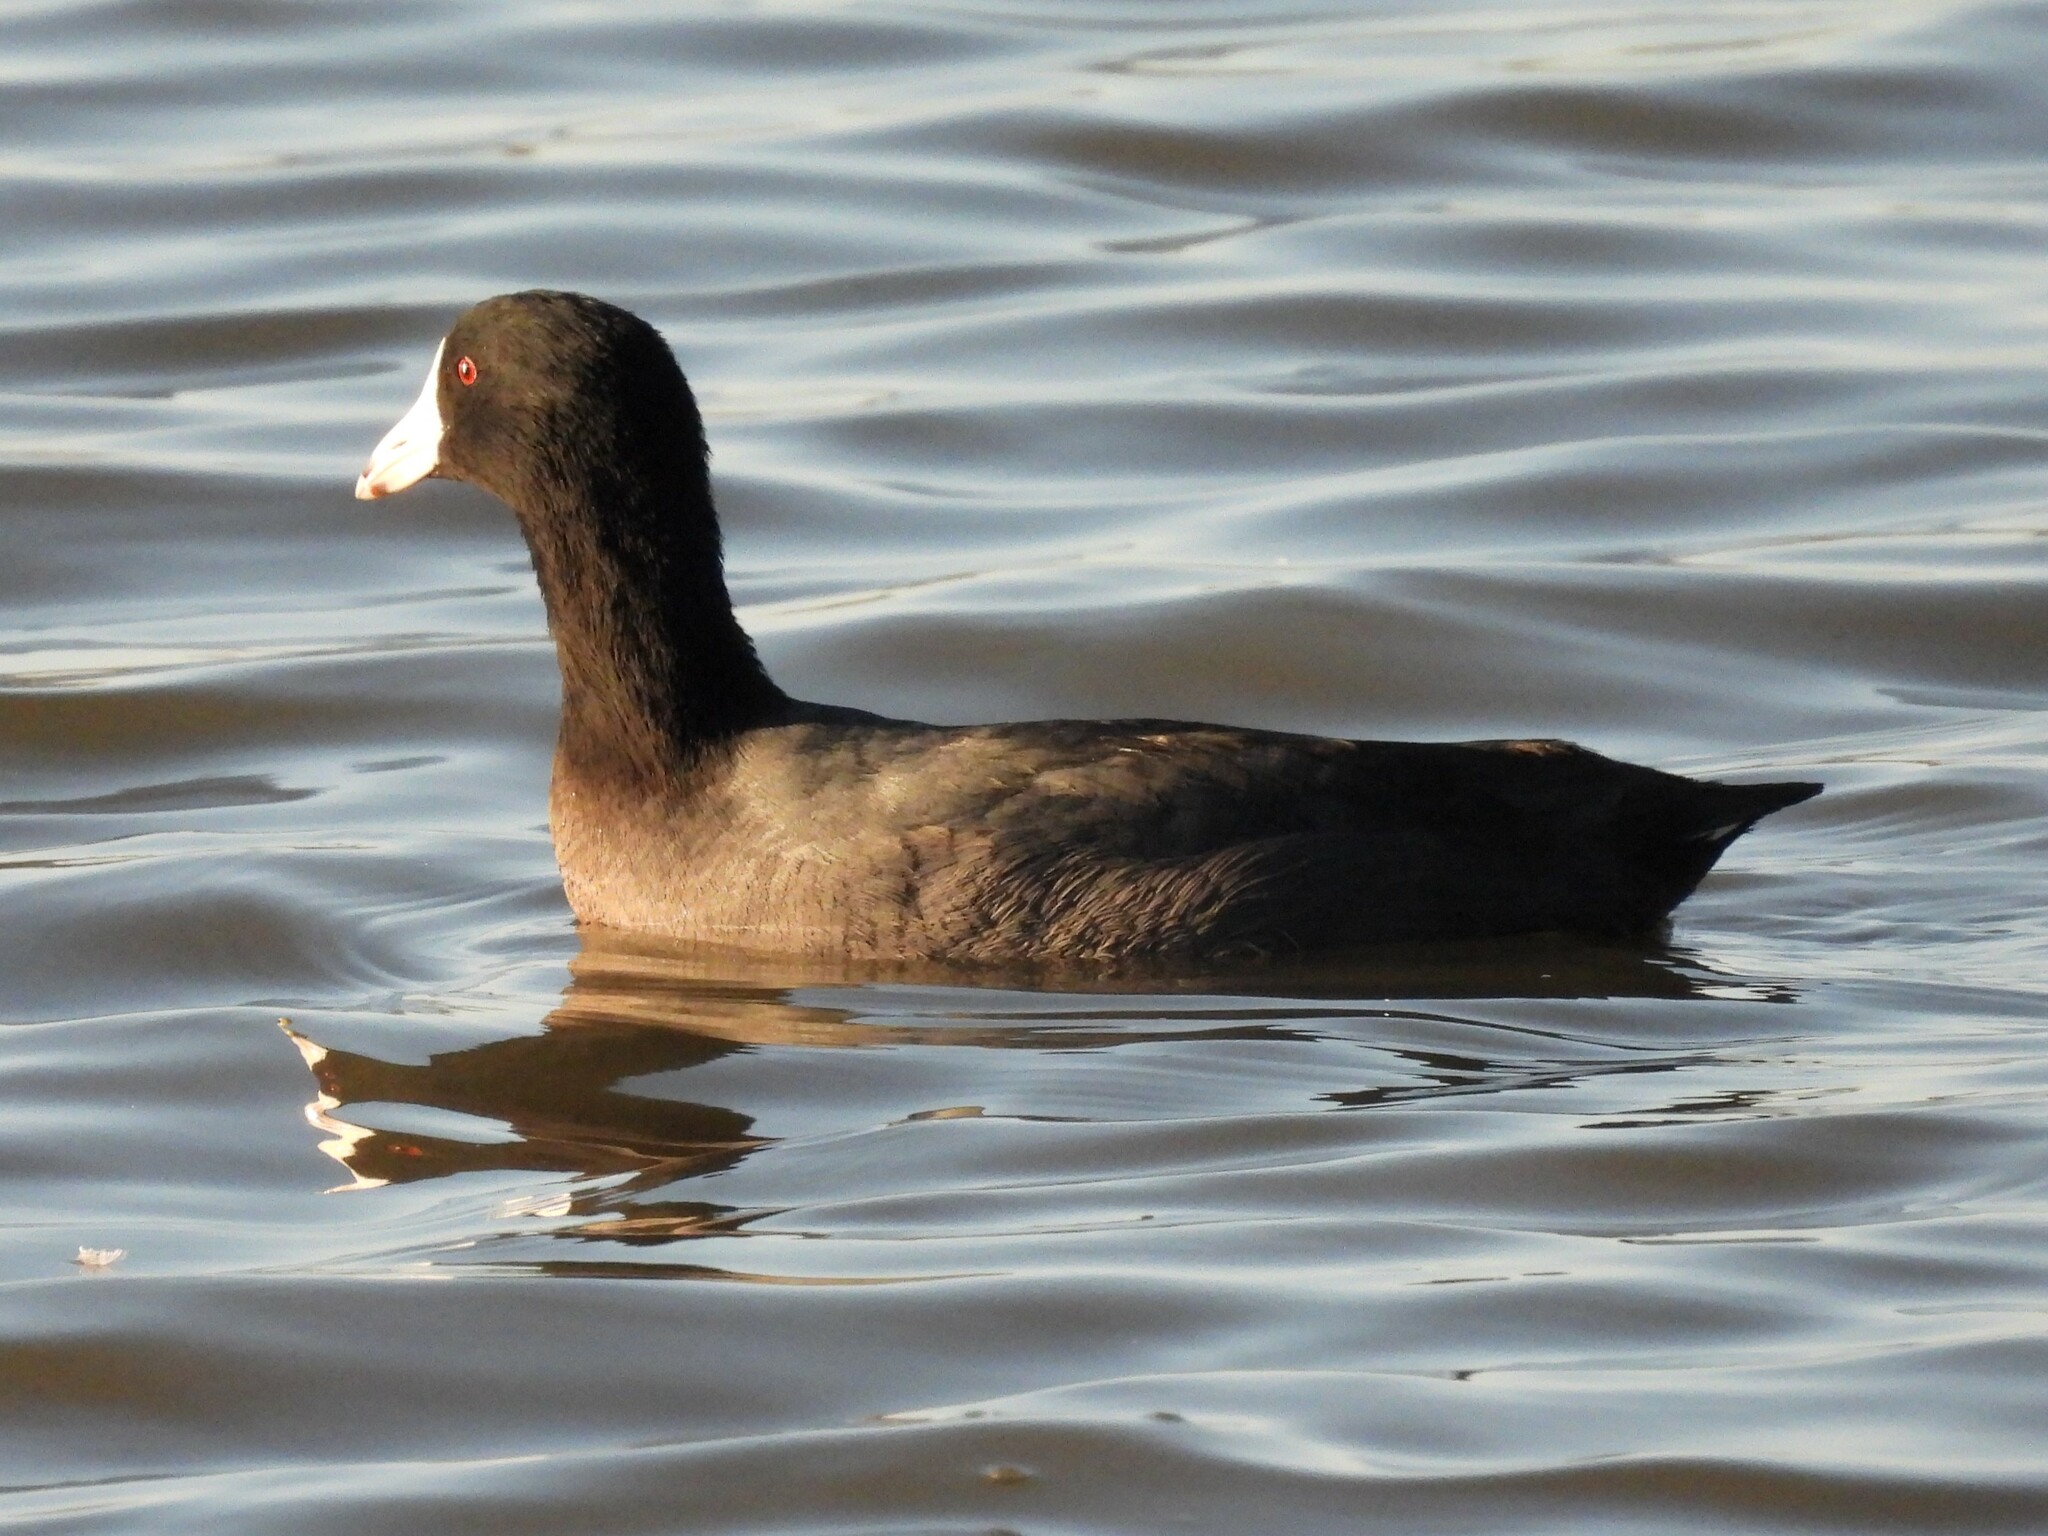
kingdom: Animalia
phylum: Chordata
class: Aves
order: Gruiformes
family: Rallidae
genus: Fulica
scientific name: Fulica americana
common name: American coot
